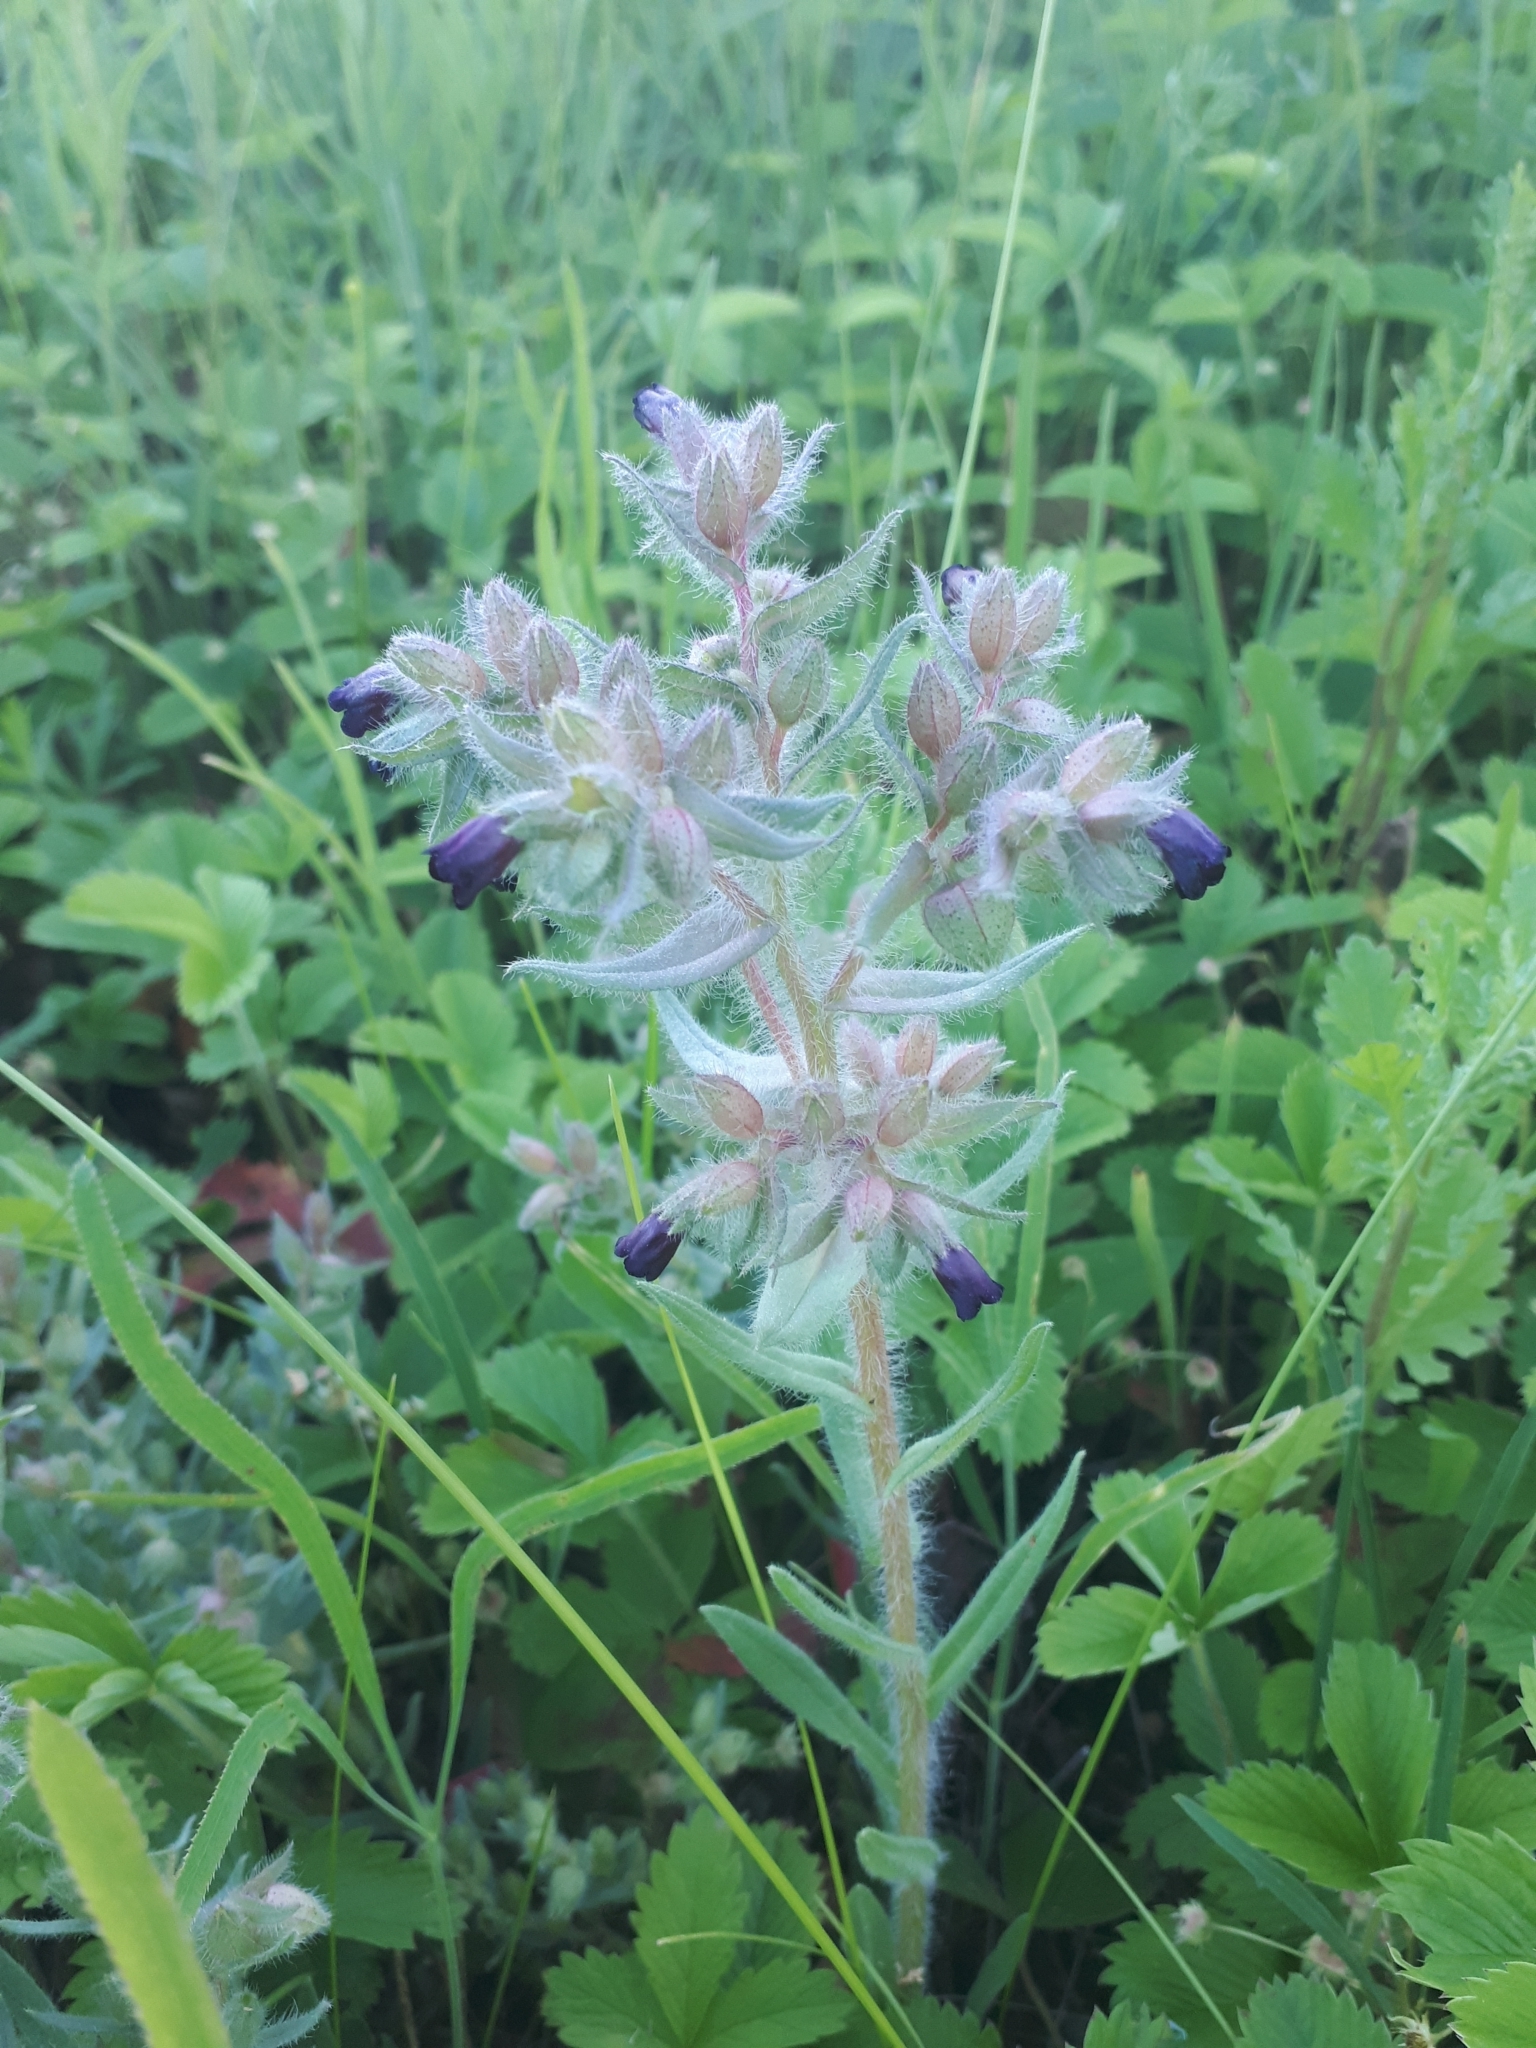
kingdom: Plantae
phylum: Tracheophyta
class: Magnoliopsida
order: Boraginales
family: Boraginaceae
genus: Nonea
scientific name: Nonea pulla
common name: Brown nonea
